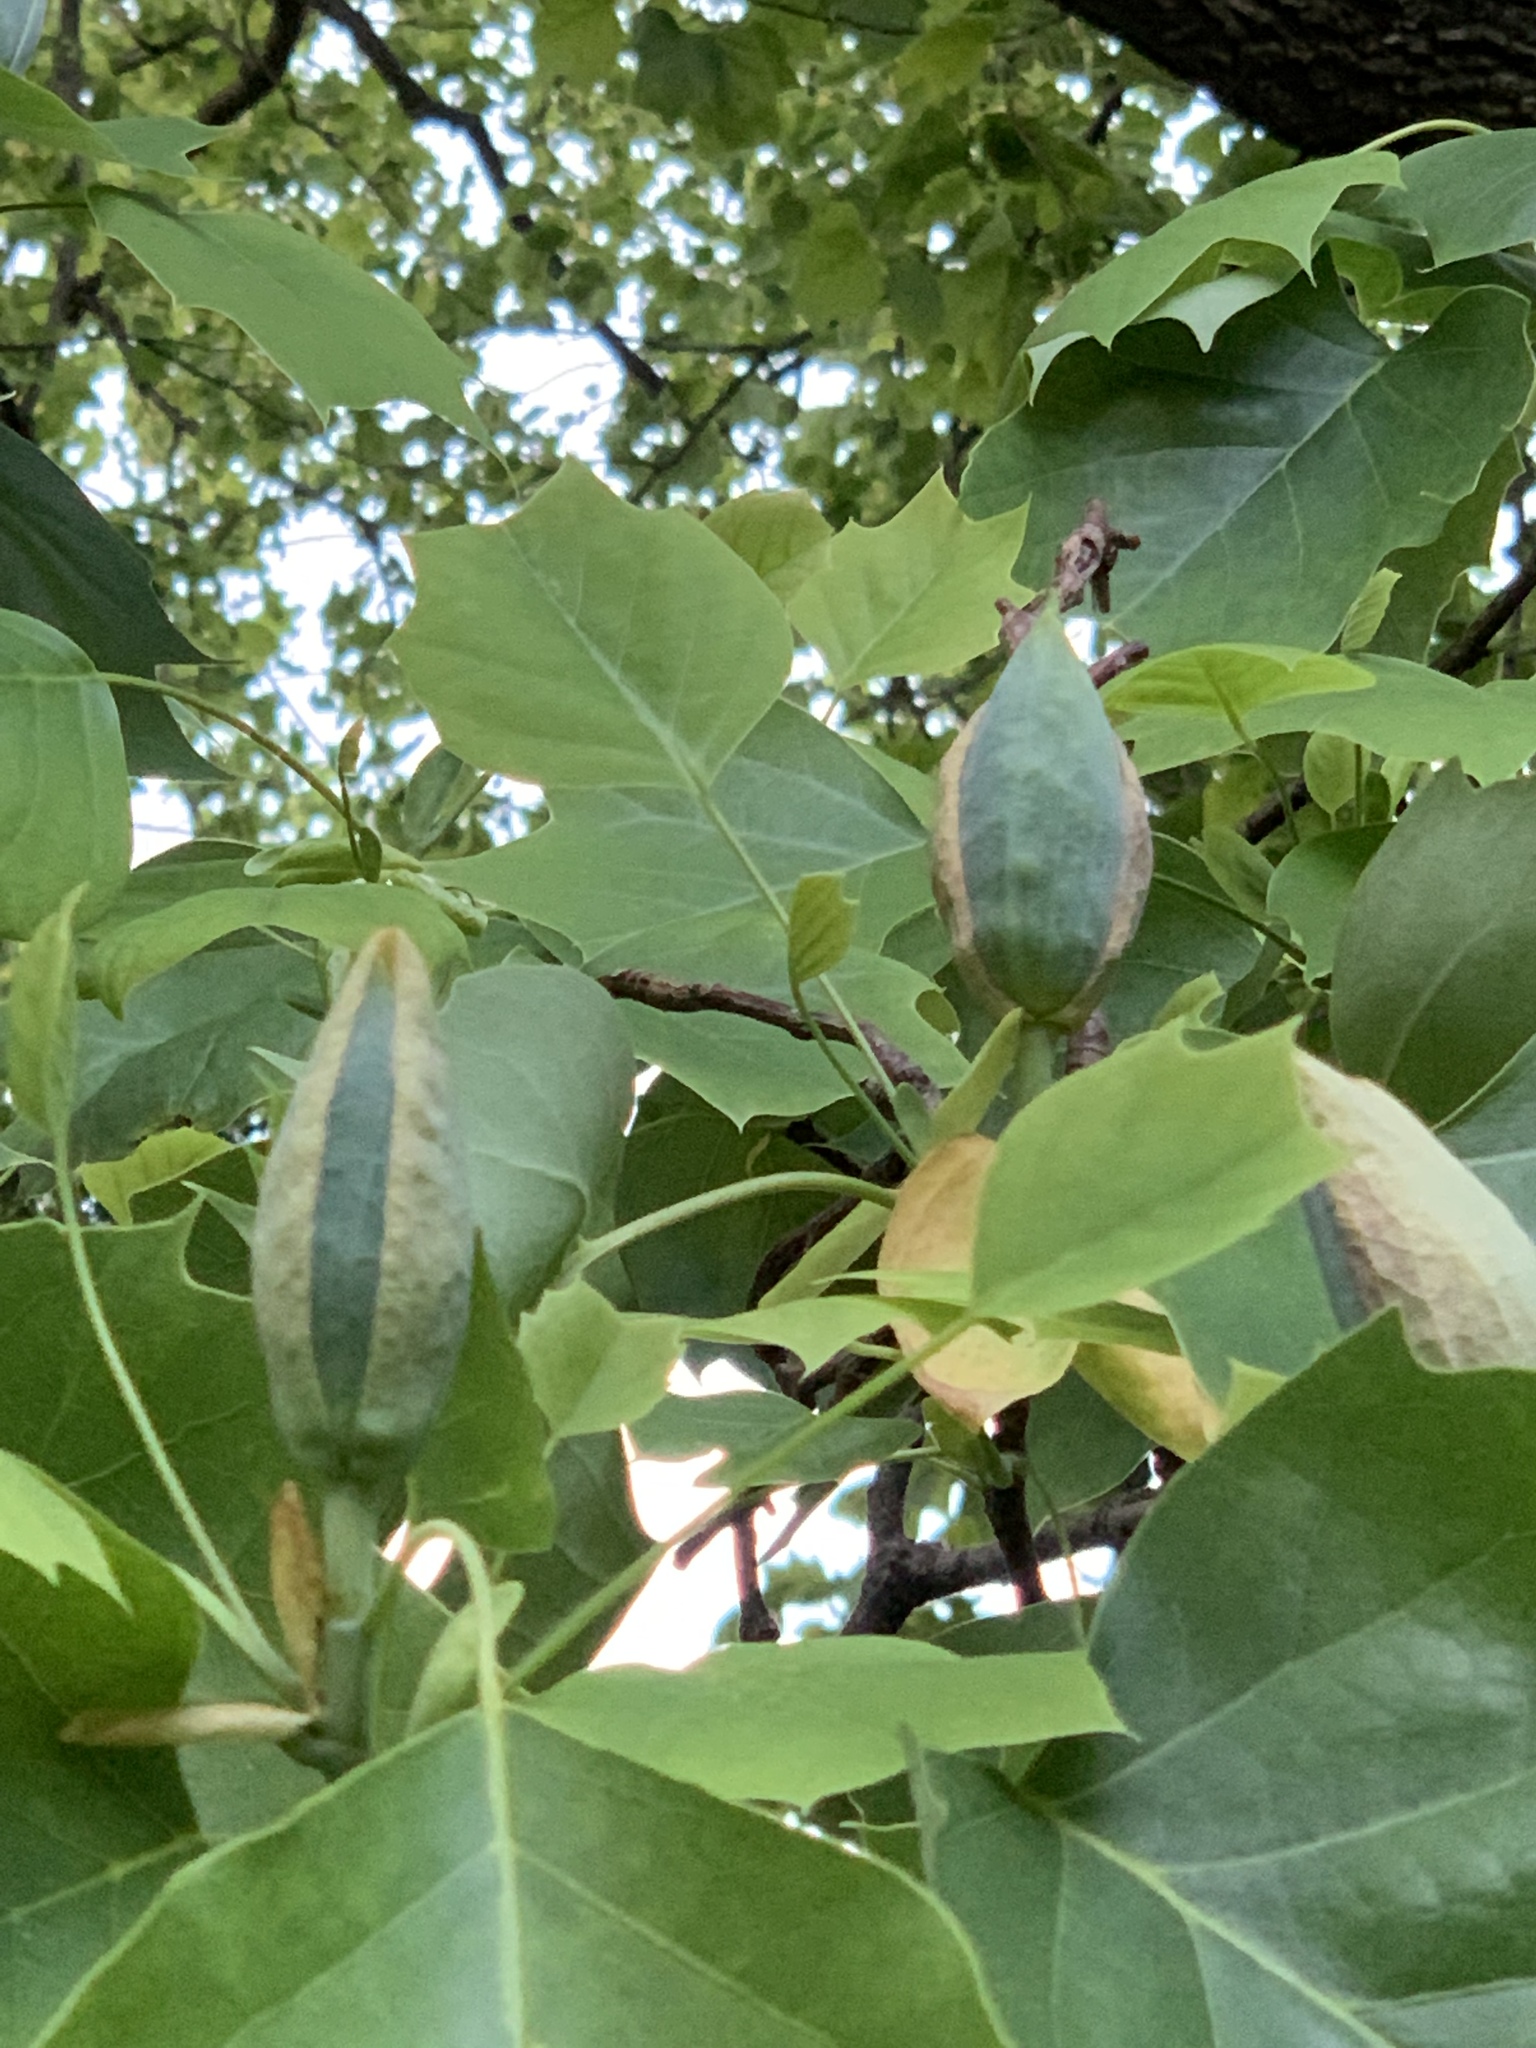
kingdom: Plantae
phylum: Tracheophyta
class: Magnoliopsida
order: Magnoliales
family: Magnoliaceae
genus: Liriodendron
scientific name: Liriodendron tulipifera
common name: Tulip tree
